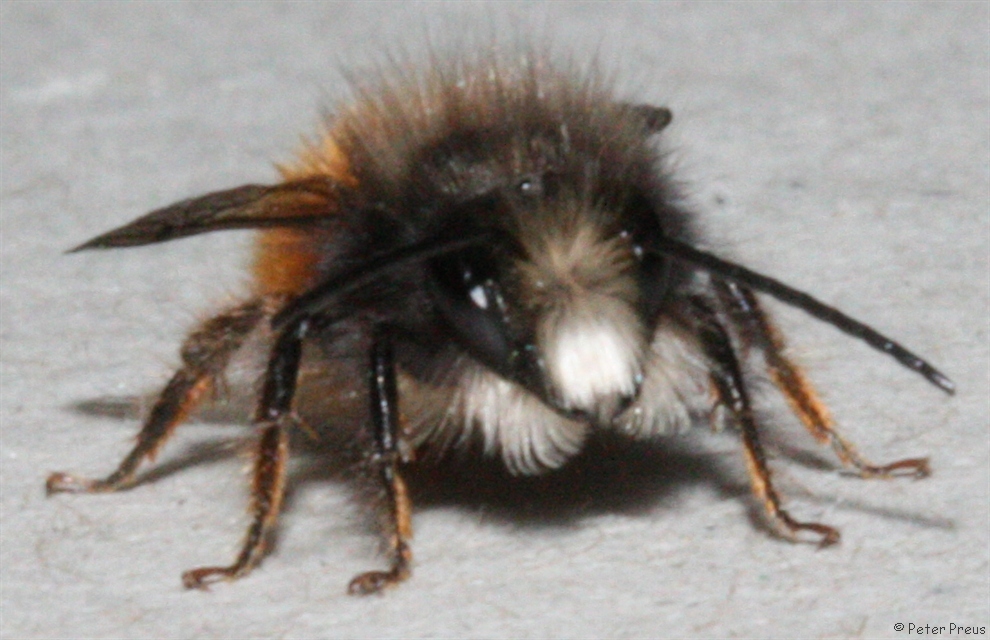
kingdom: Animalia
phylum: Arthropoda
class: Insecta
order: Hymenoptera
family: Megachilidae
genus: Osmia
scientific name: Osmia cornuta
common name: Mason bee
